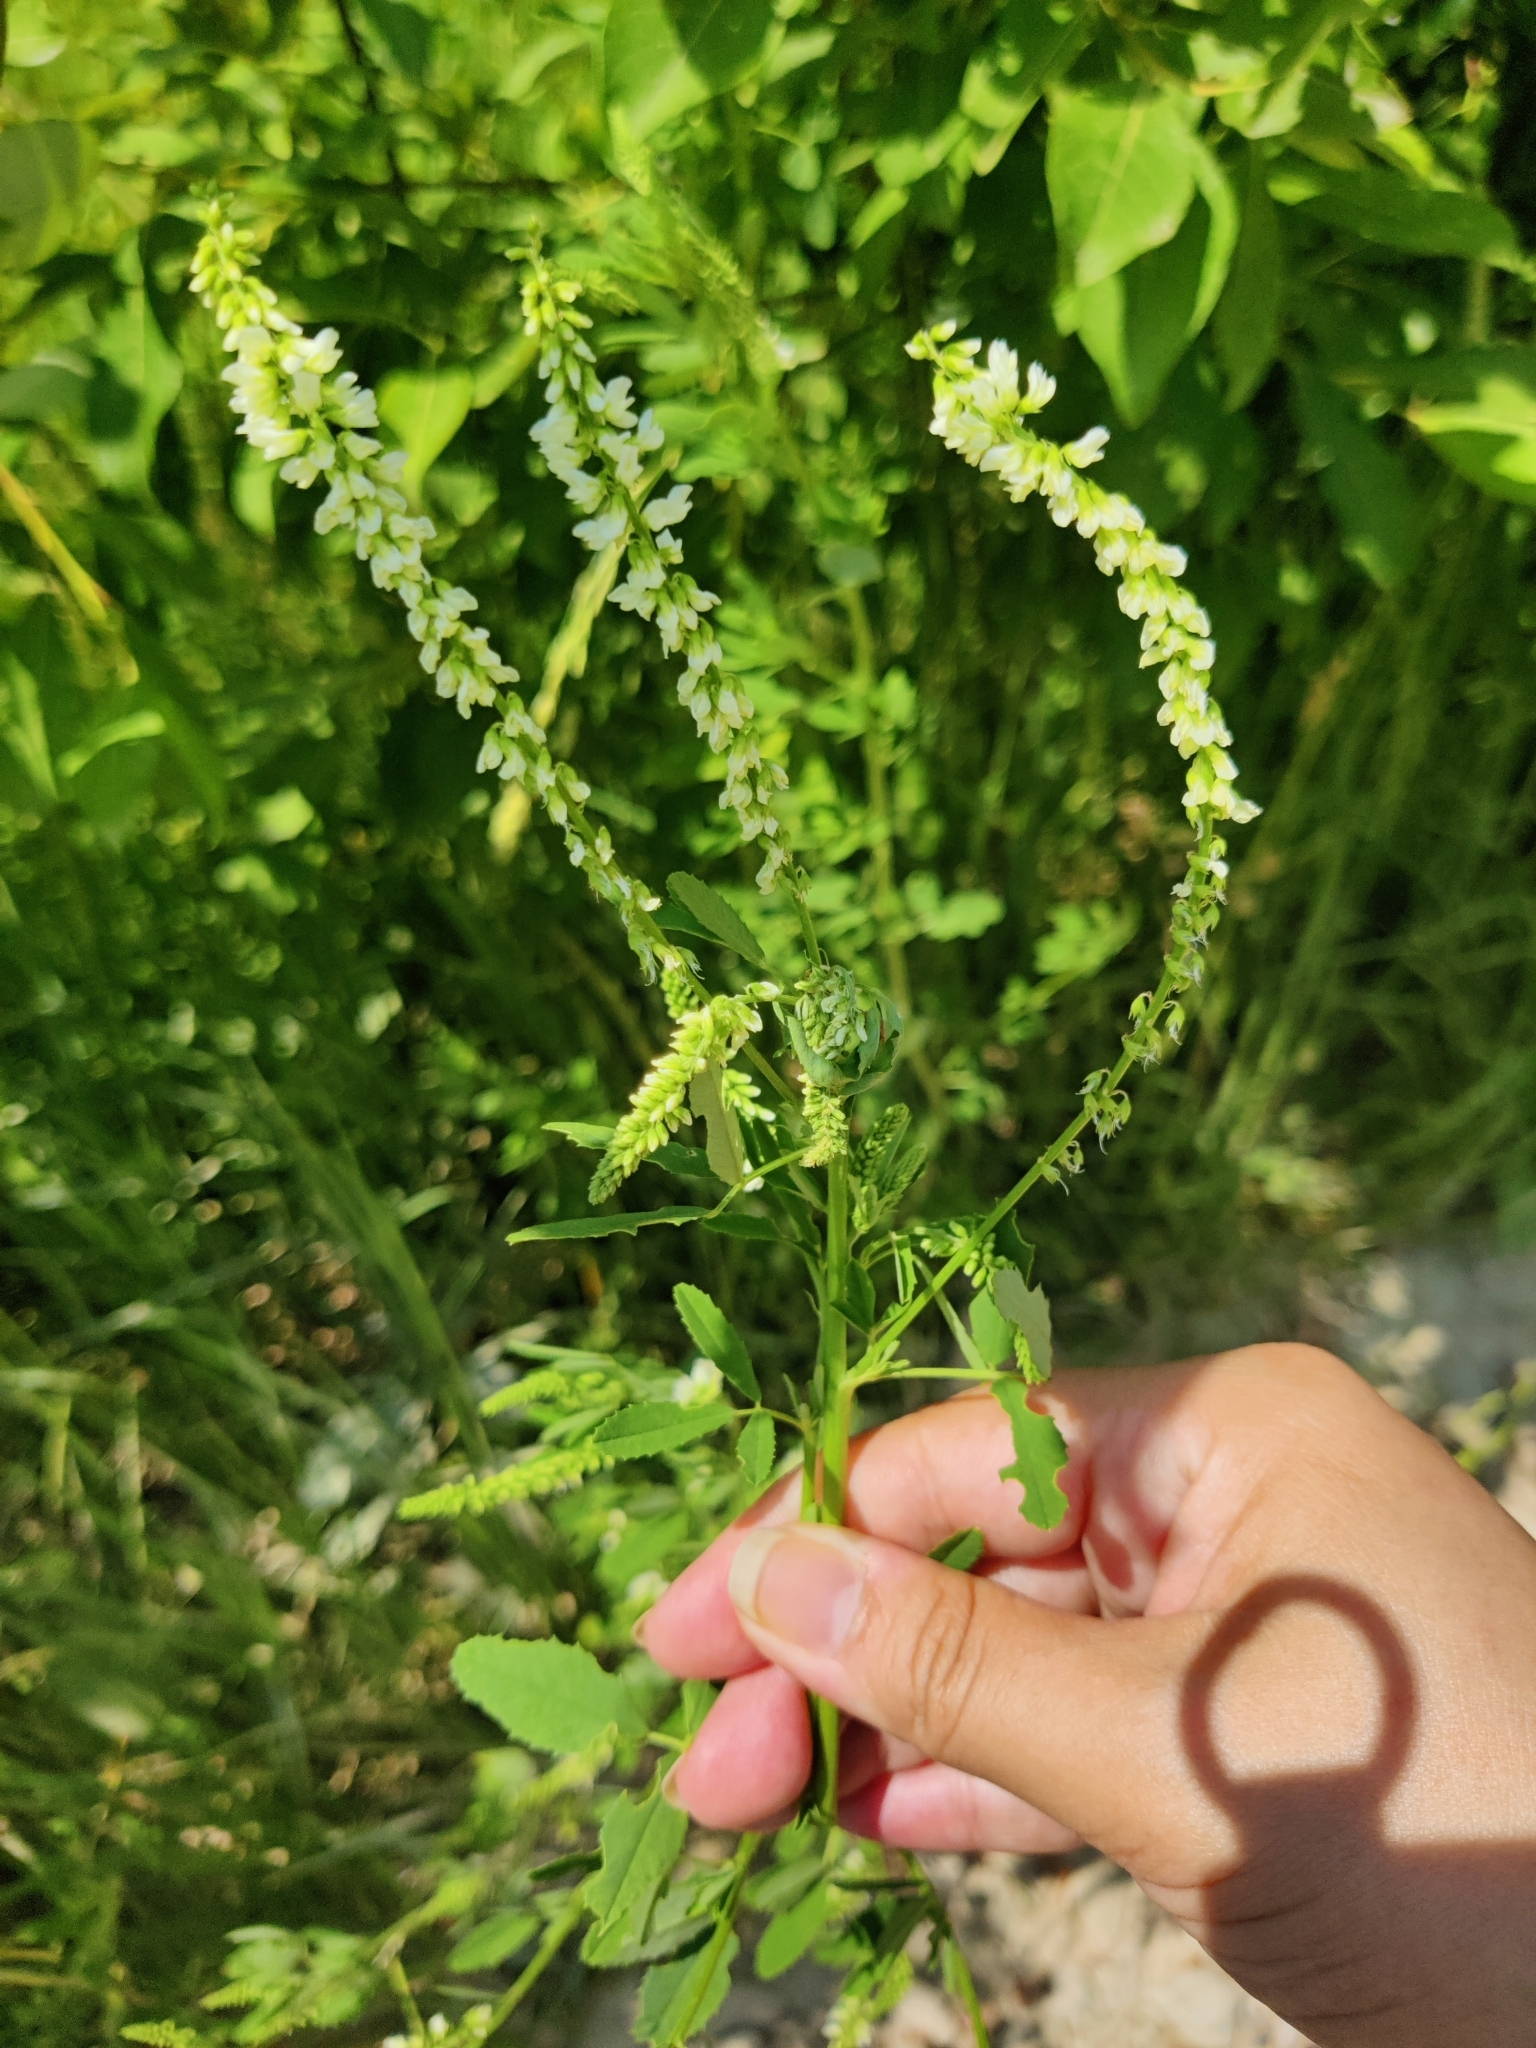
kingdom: Plantae
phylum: Tracheophyta
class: Magnoliopsida
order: Fabales
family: Fabaceae
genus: Melilotus
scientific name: Melilotus albus
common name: White melilot
